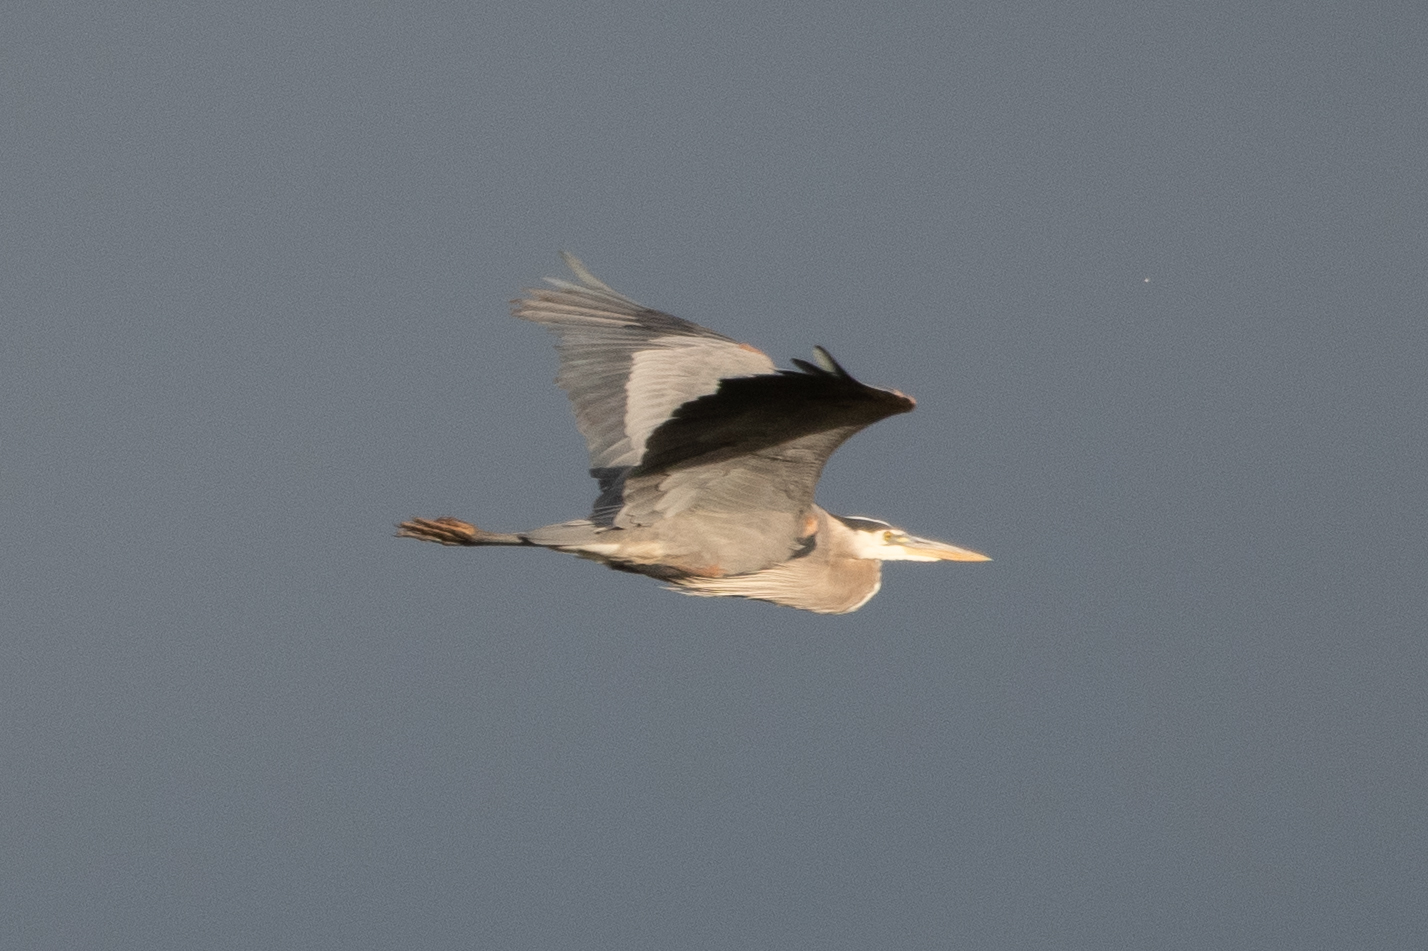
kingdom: Animalia
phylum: Chordata
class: Aves
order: Pelecaniformes
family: Ardeidae
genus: Ardea
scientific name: Ardea herodias
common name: Great blue heron
